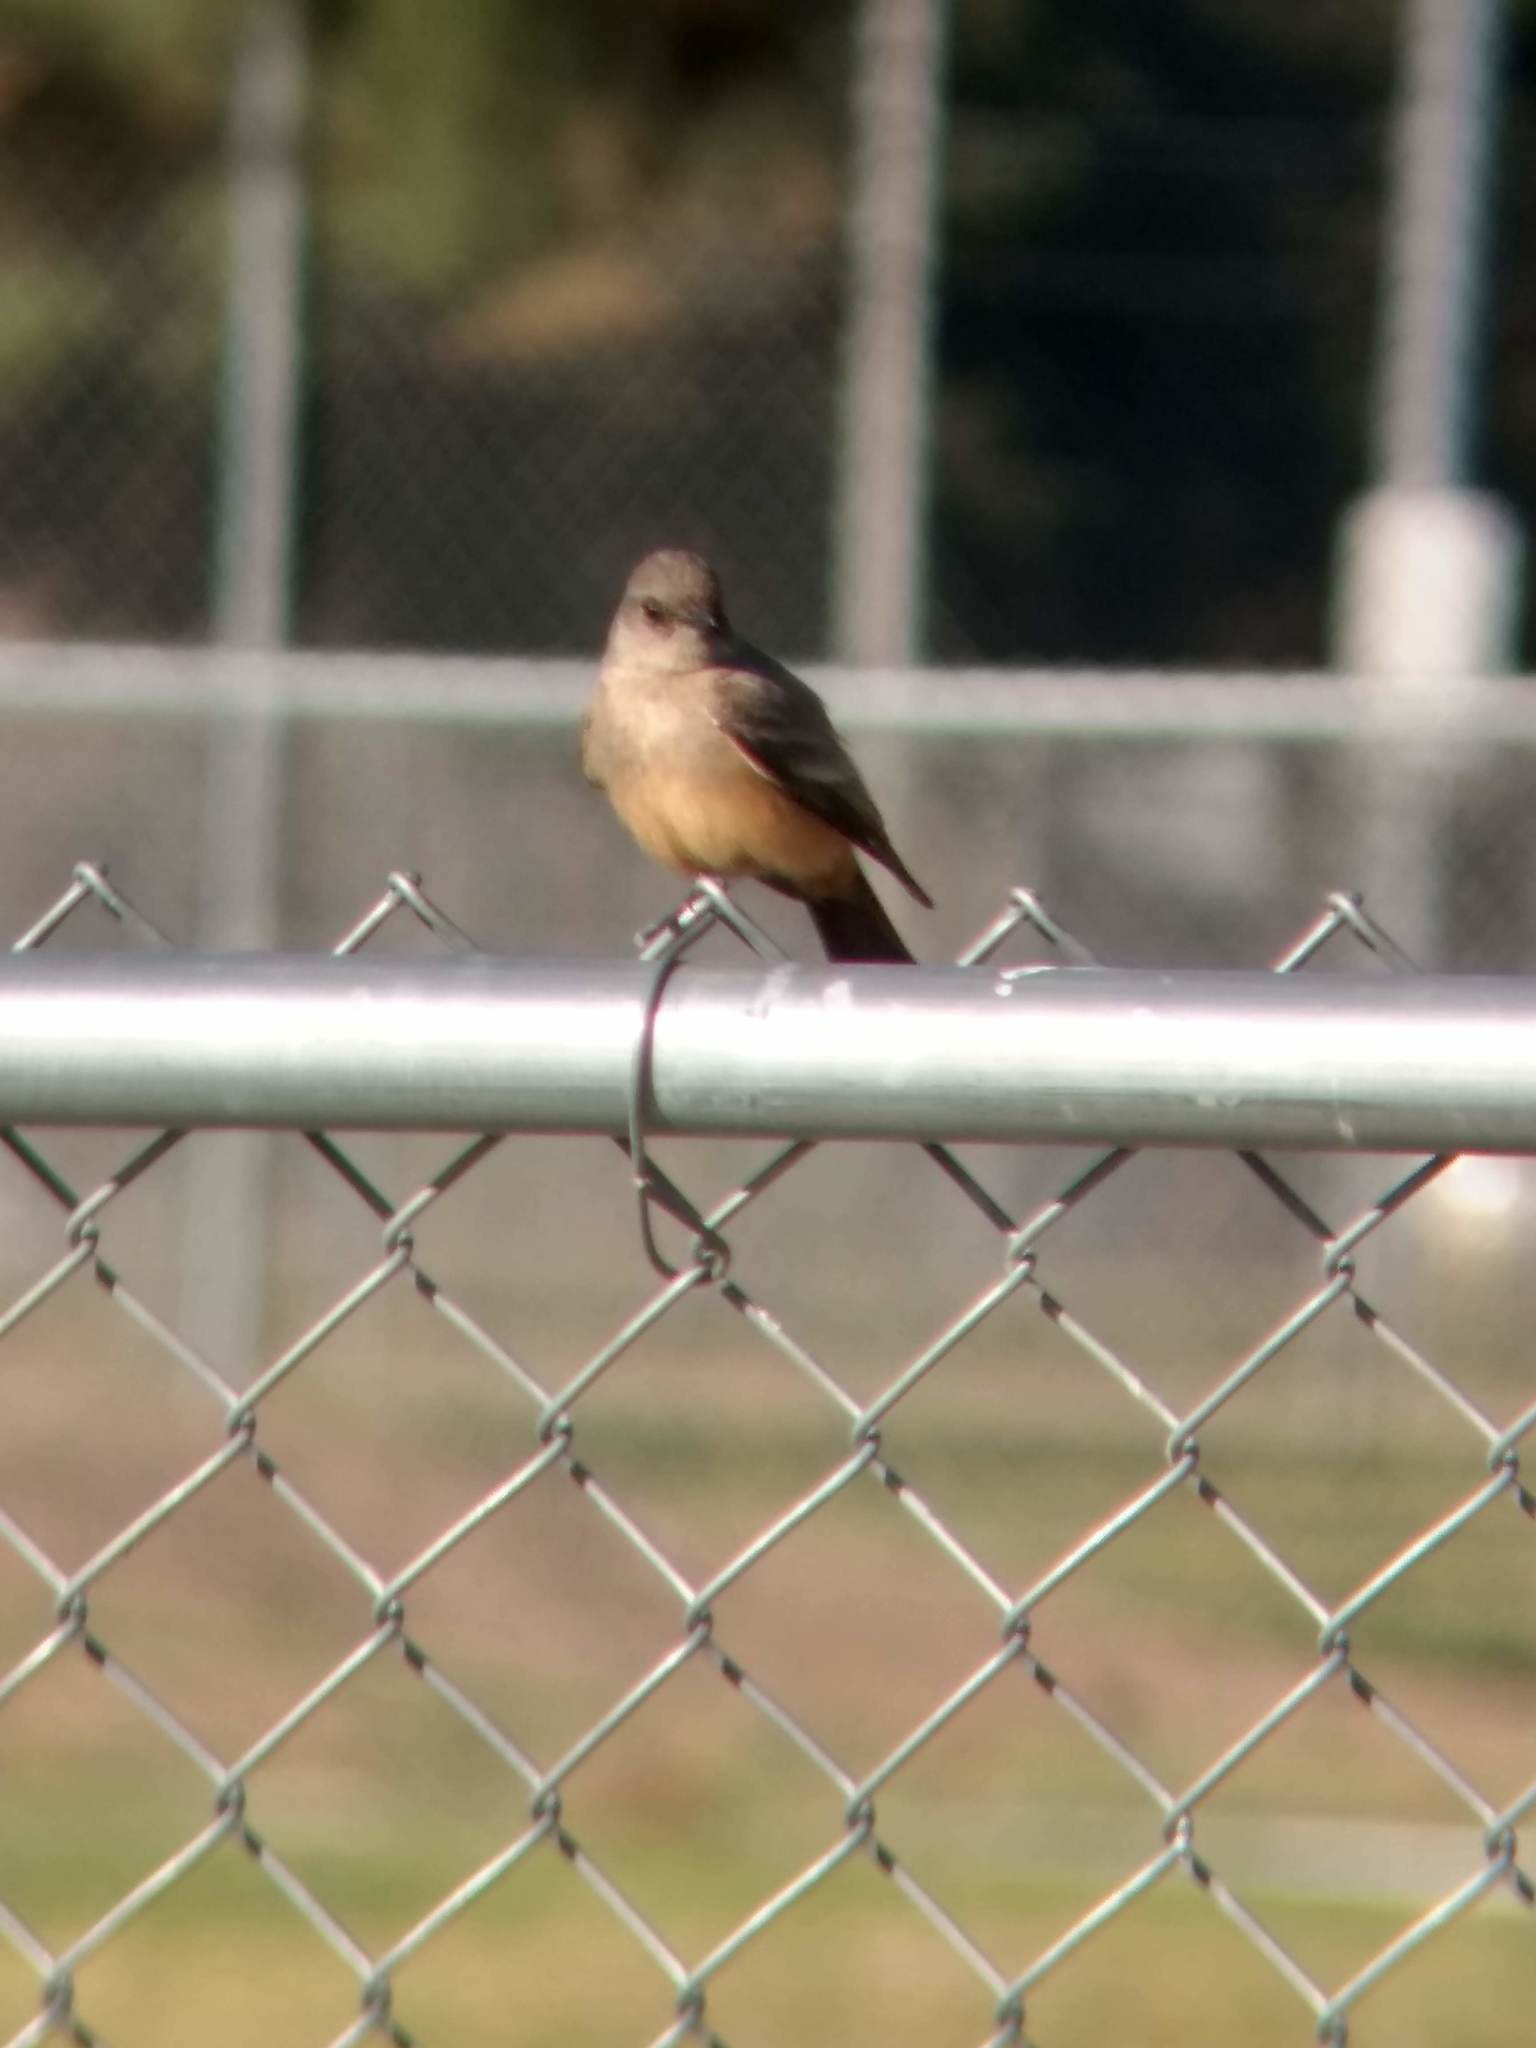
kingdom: Animalia
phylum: Chordata
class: Aves
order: Passeriformes
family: Tyrannidae
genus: Sayornis
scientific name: Sayornis saya
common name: Say's phoebe
